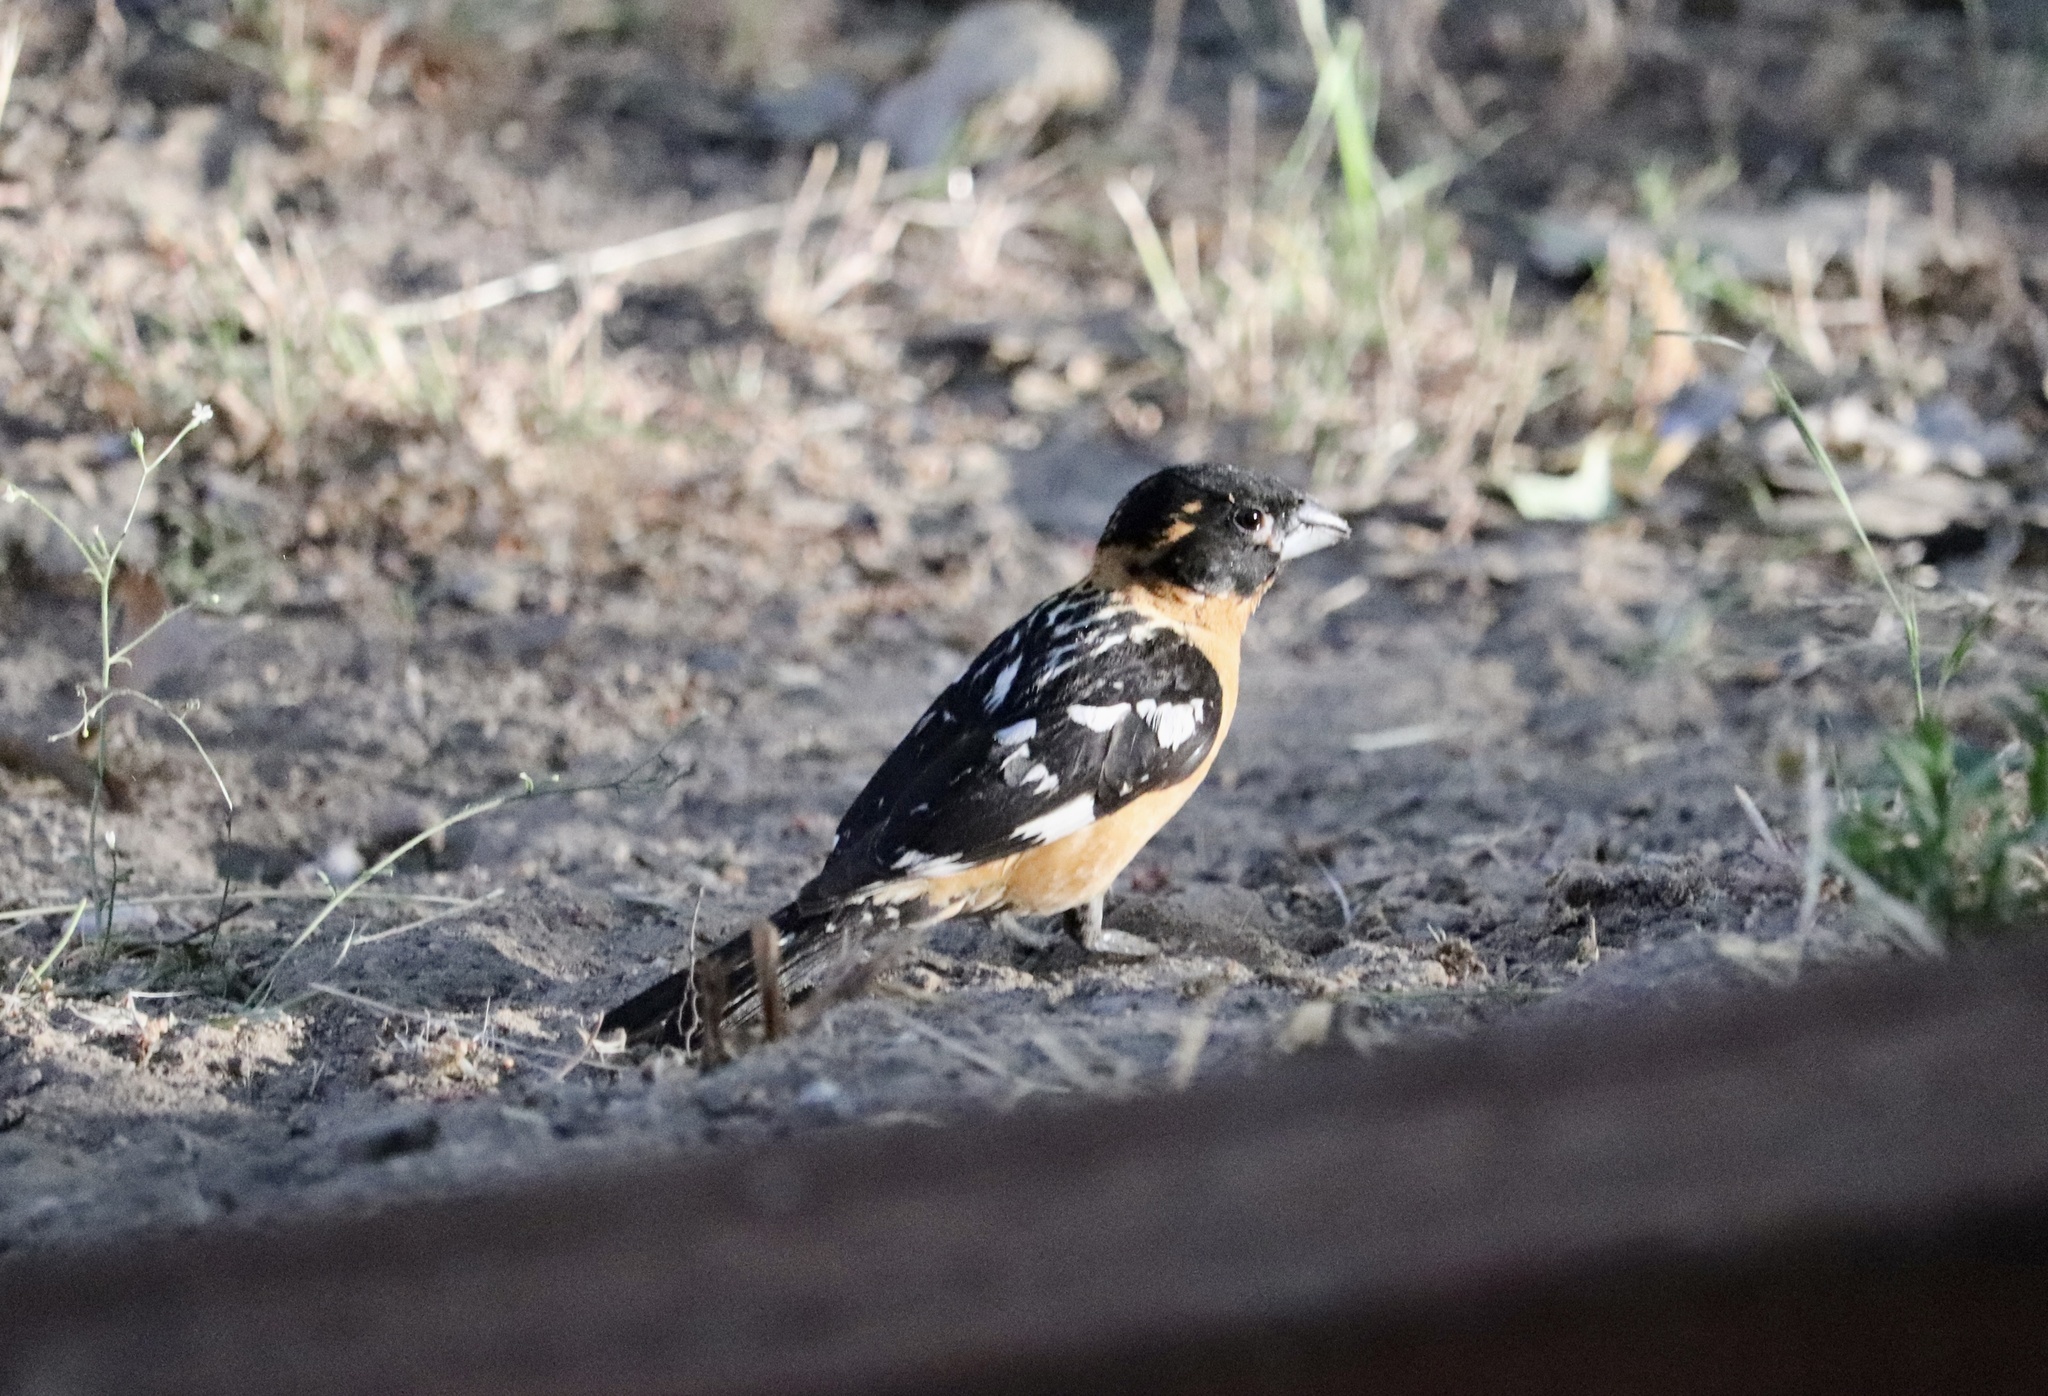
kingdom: Animalia
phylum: Chordata
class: Aves
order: Passeriformes
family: Cardinalidae
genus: Pheucticus
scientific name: Pheucticus melanocephalus
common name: Black-headed grosbeak
